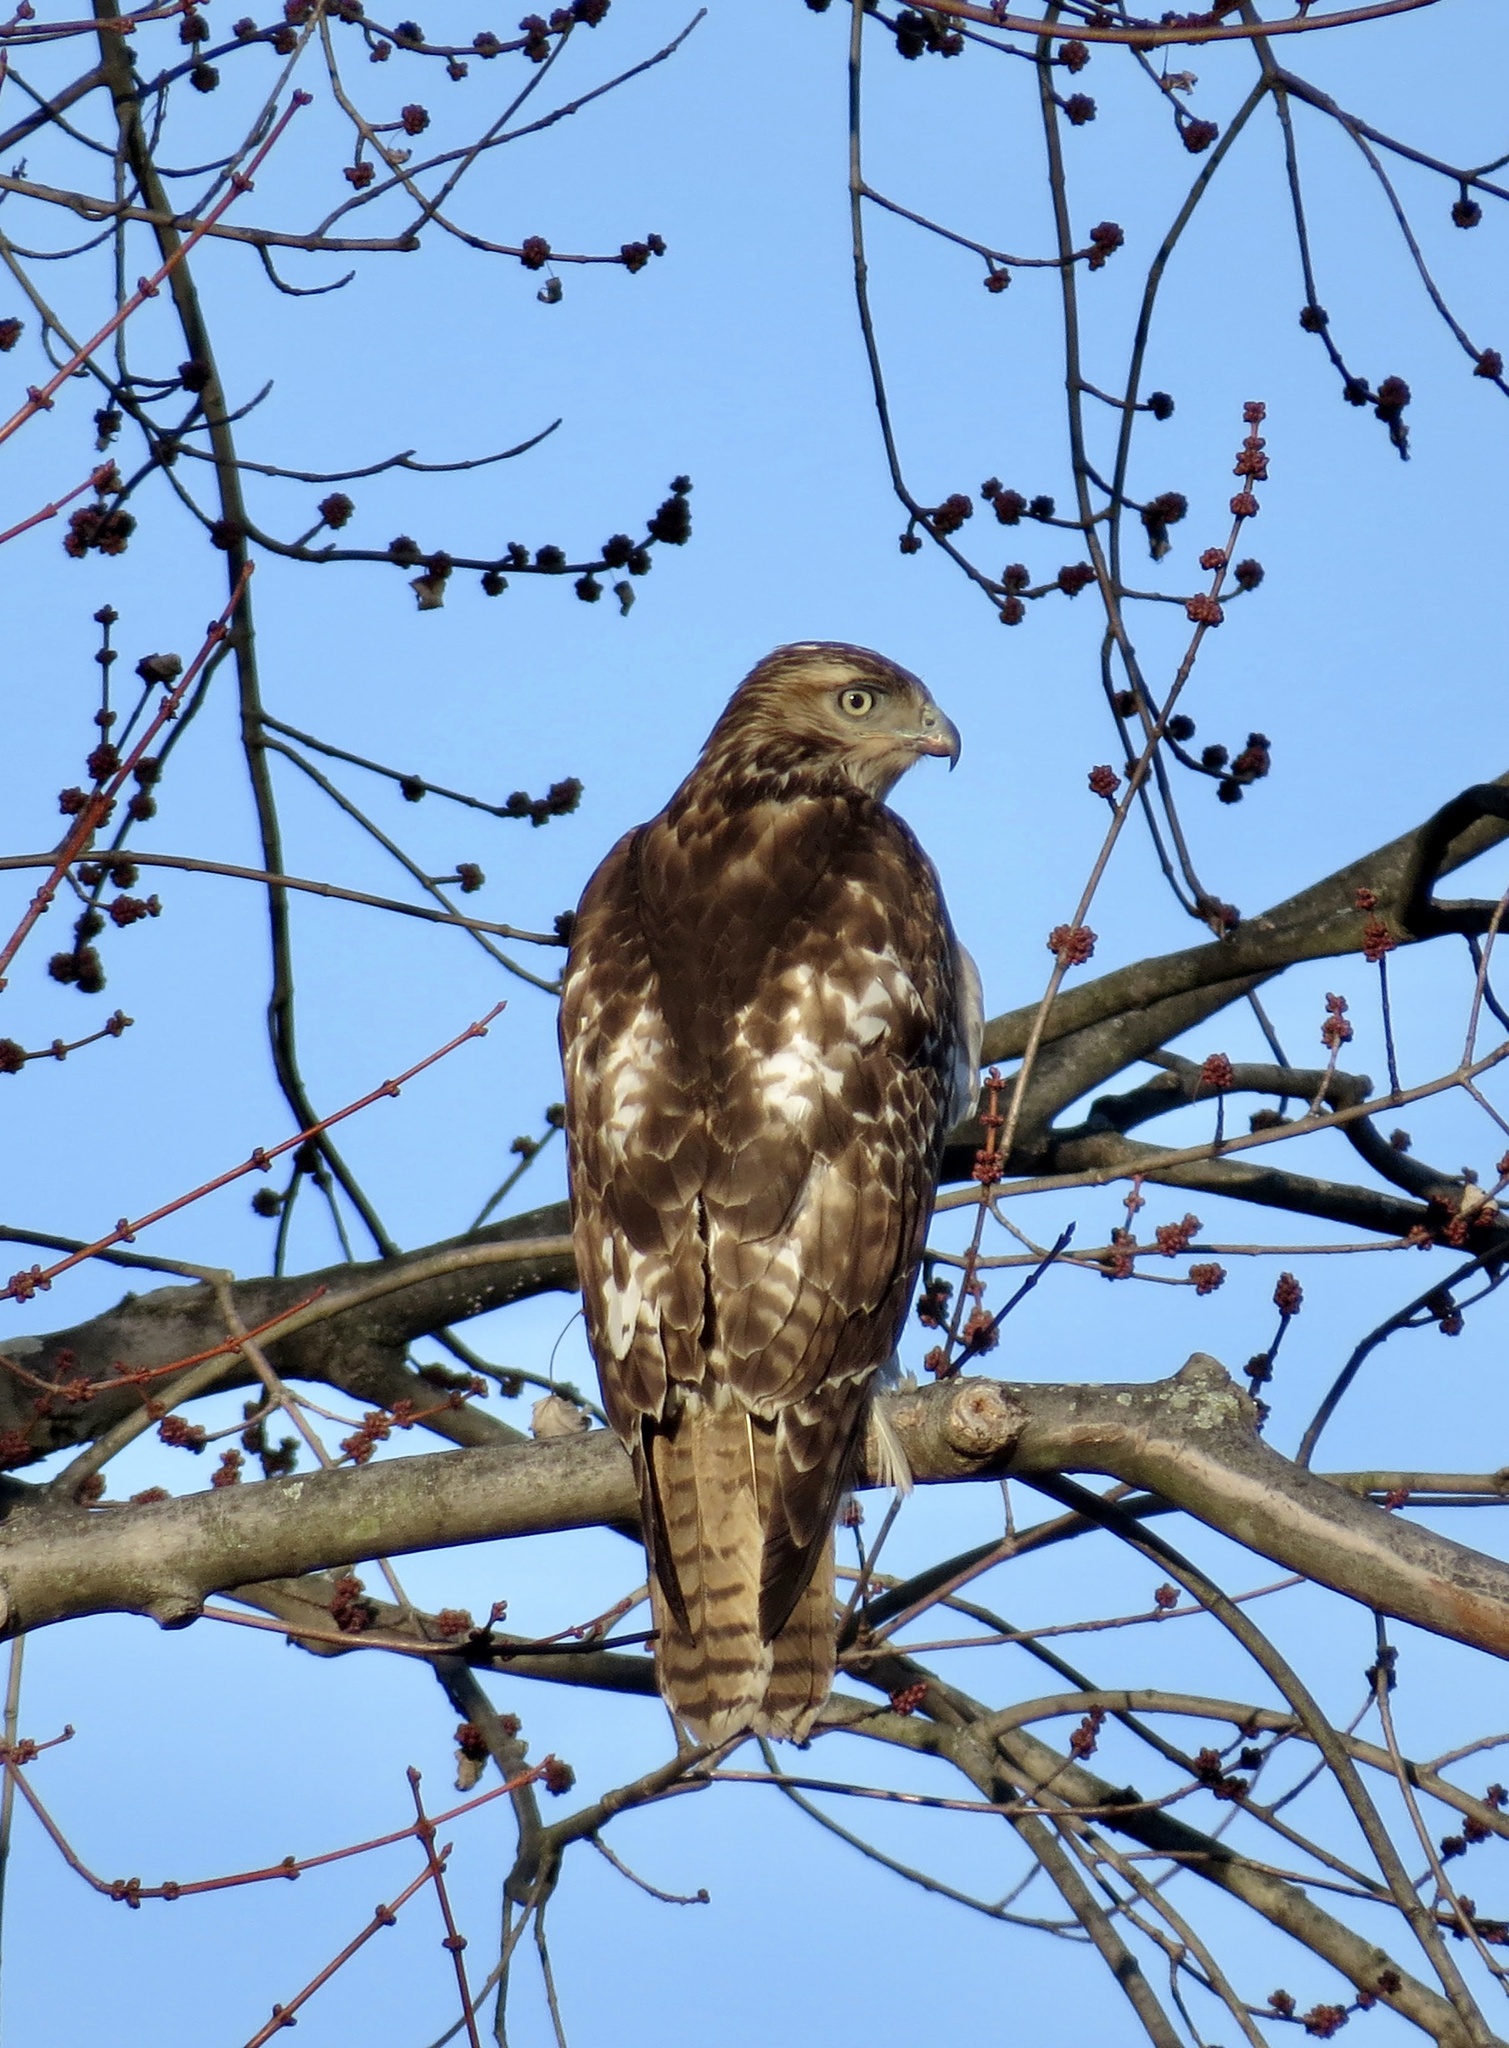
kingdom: Animalia
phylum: Chordata
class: Aves
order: Accipitriformes
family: Accipitridae
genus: Buteo
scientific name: Buteo jamaicensis
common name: Red-tailed hawk
